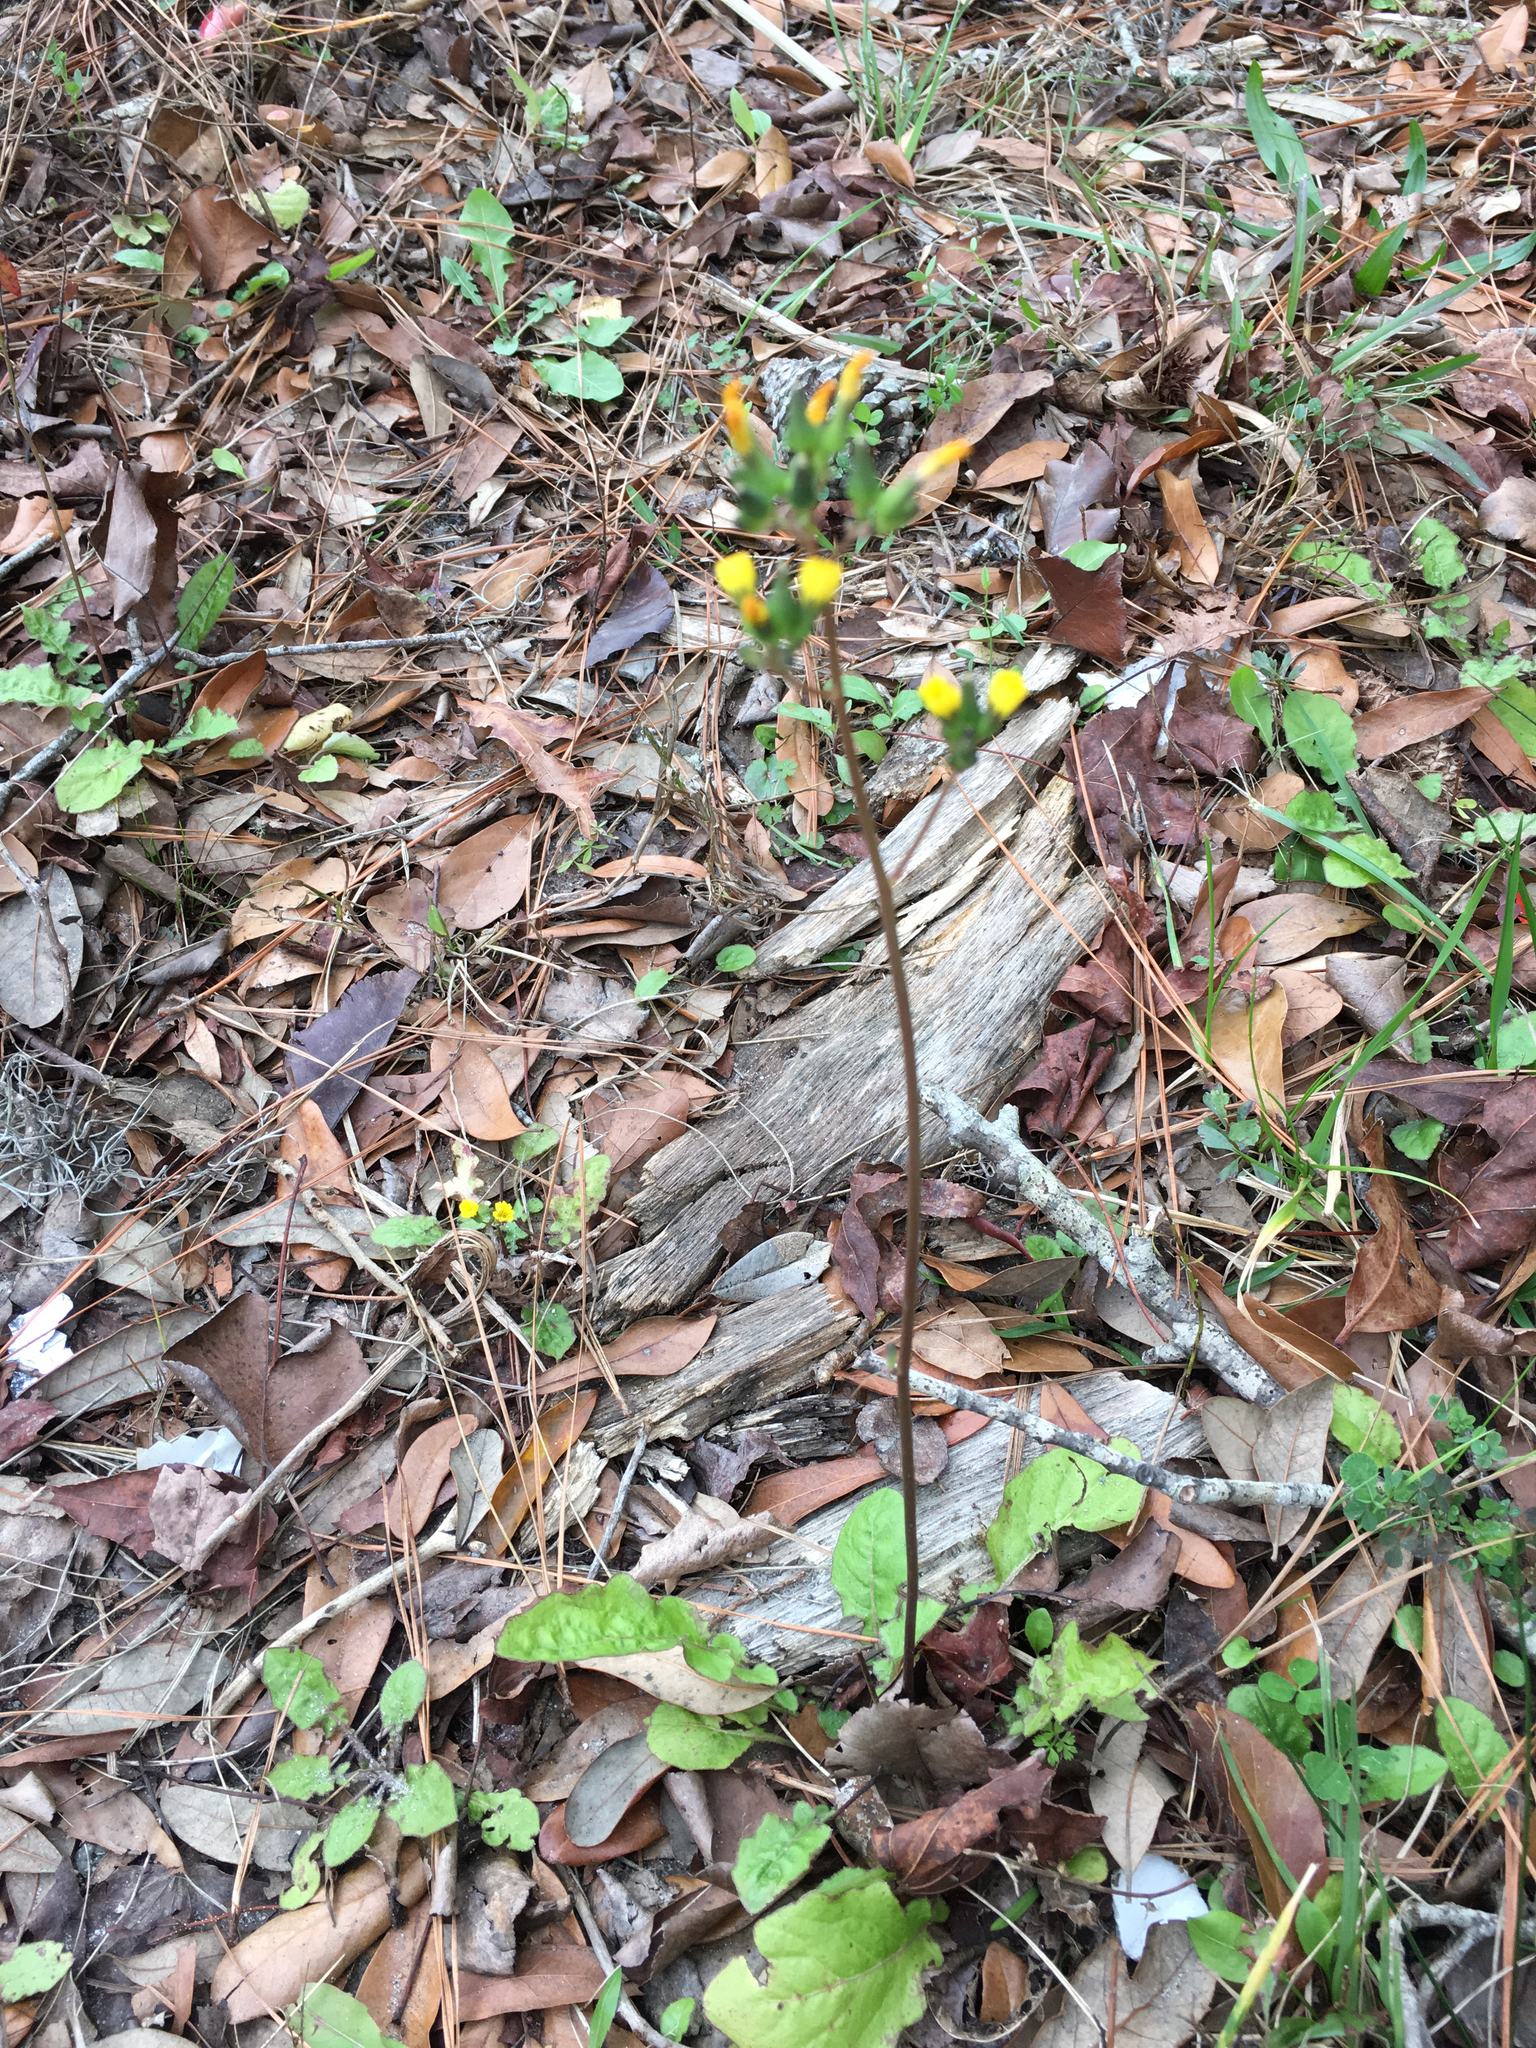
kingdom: Plantae
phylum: Tracheophyta
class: Magnoliopsida
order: Asterales
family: Asteraceae
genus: Youngia
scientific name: Youngia japonica
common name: Oriental false hawksbeard
